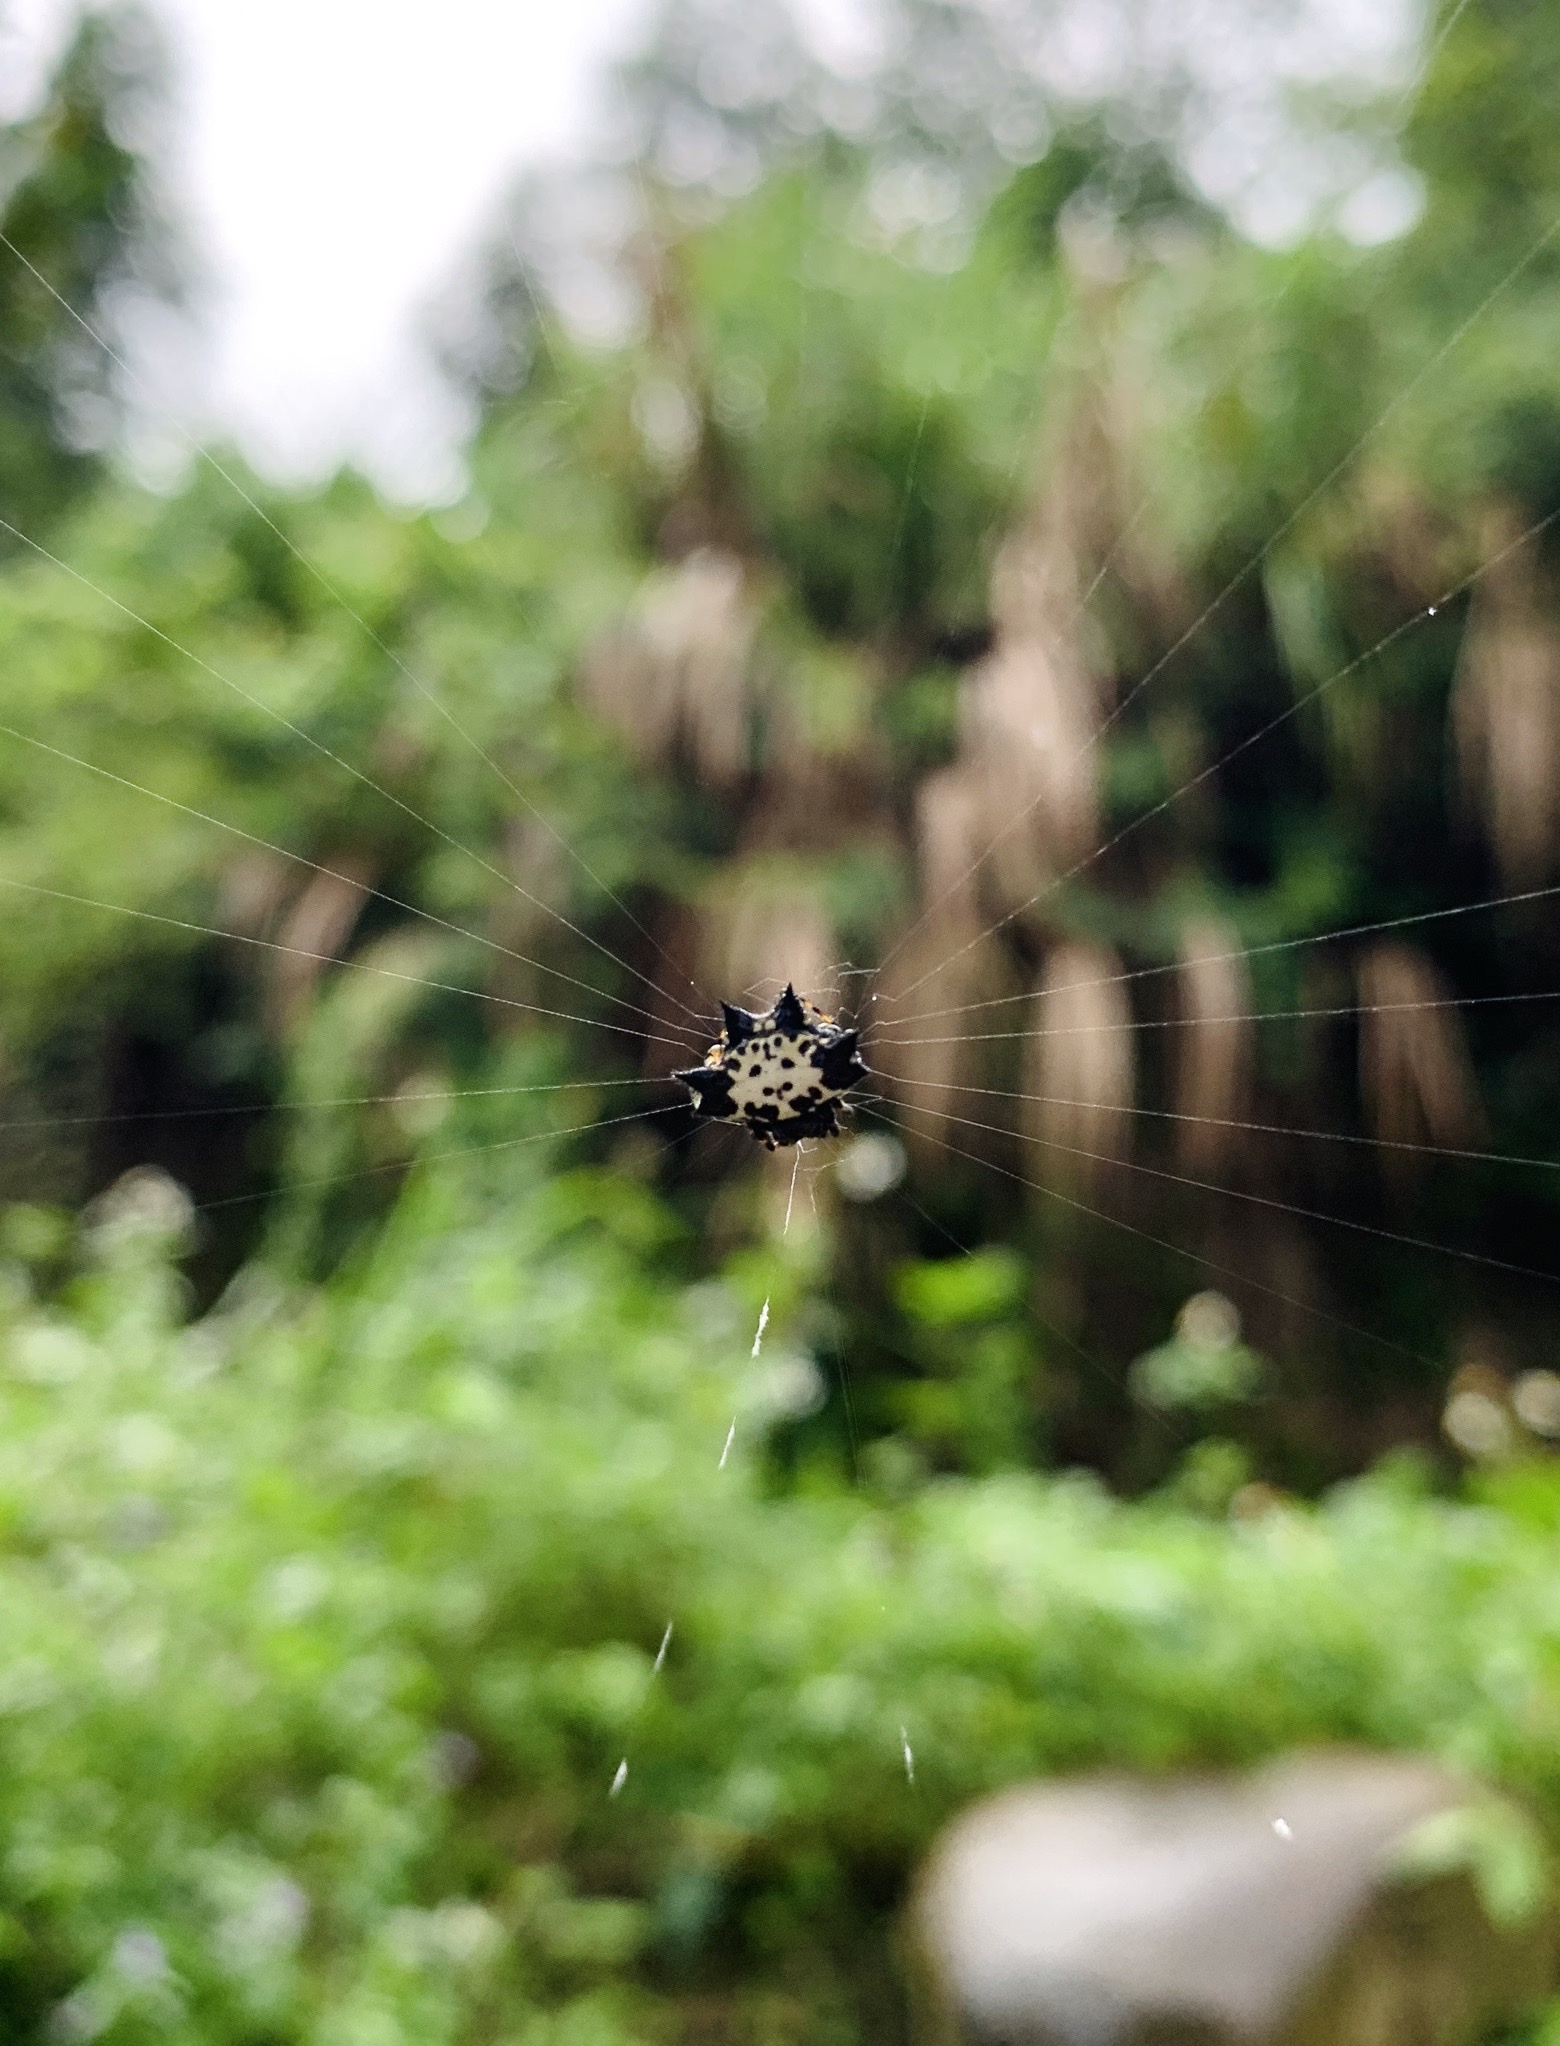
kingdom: Animalia
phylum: Arthropoda
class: Arachnida
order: Araneae
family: Araneidae
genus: Gasteracantha
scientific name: Gasteracantha kuhli
